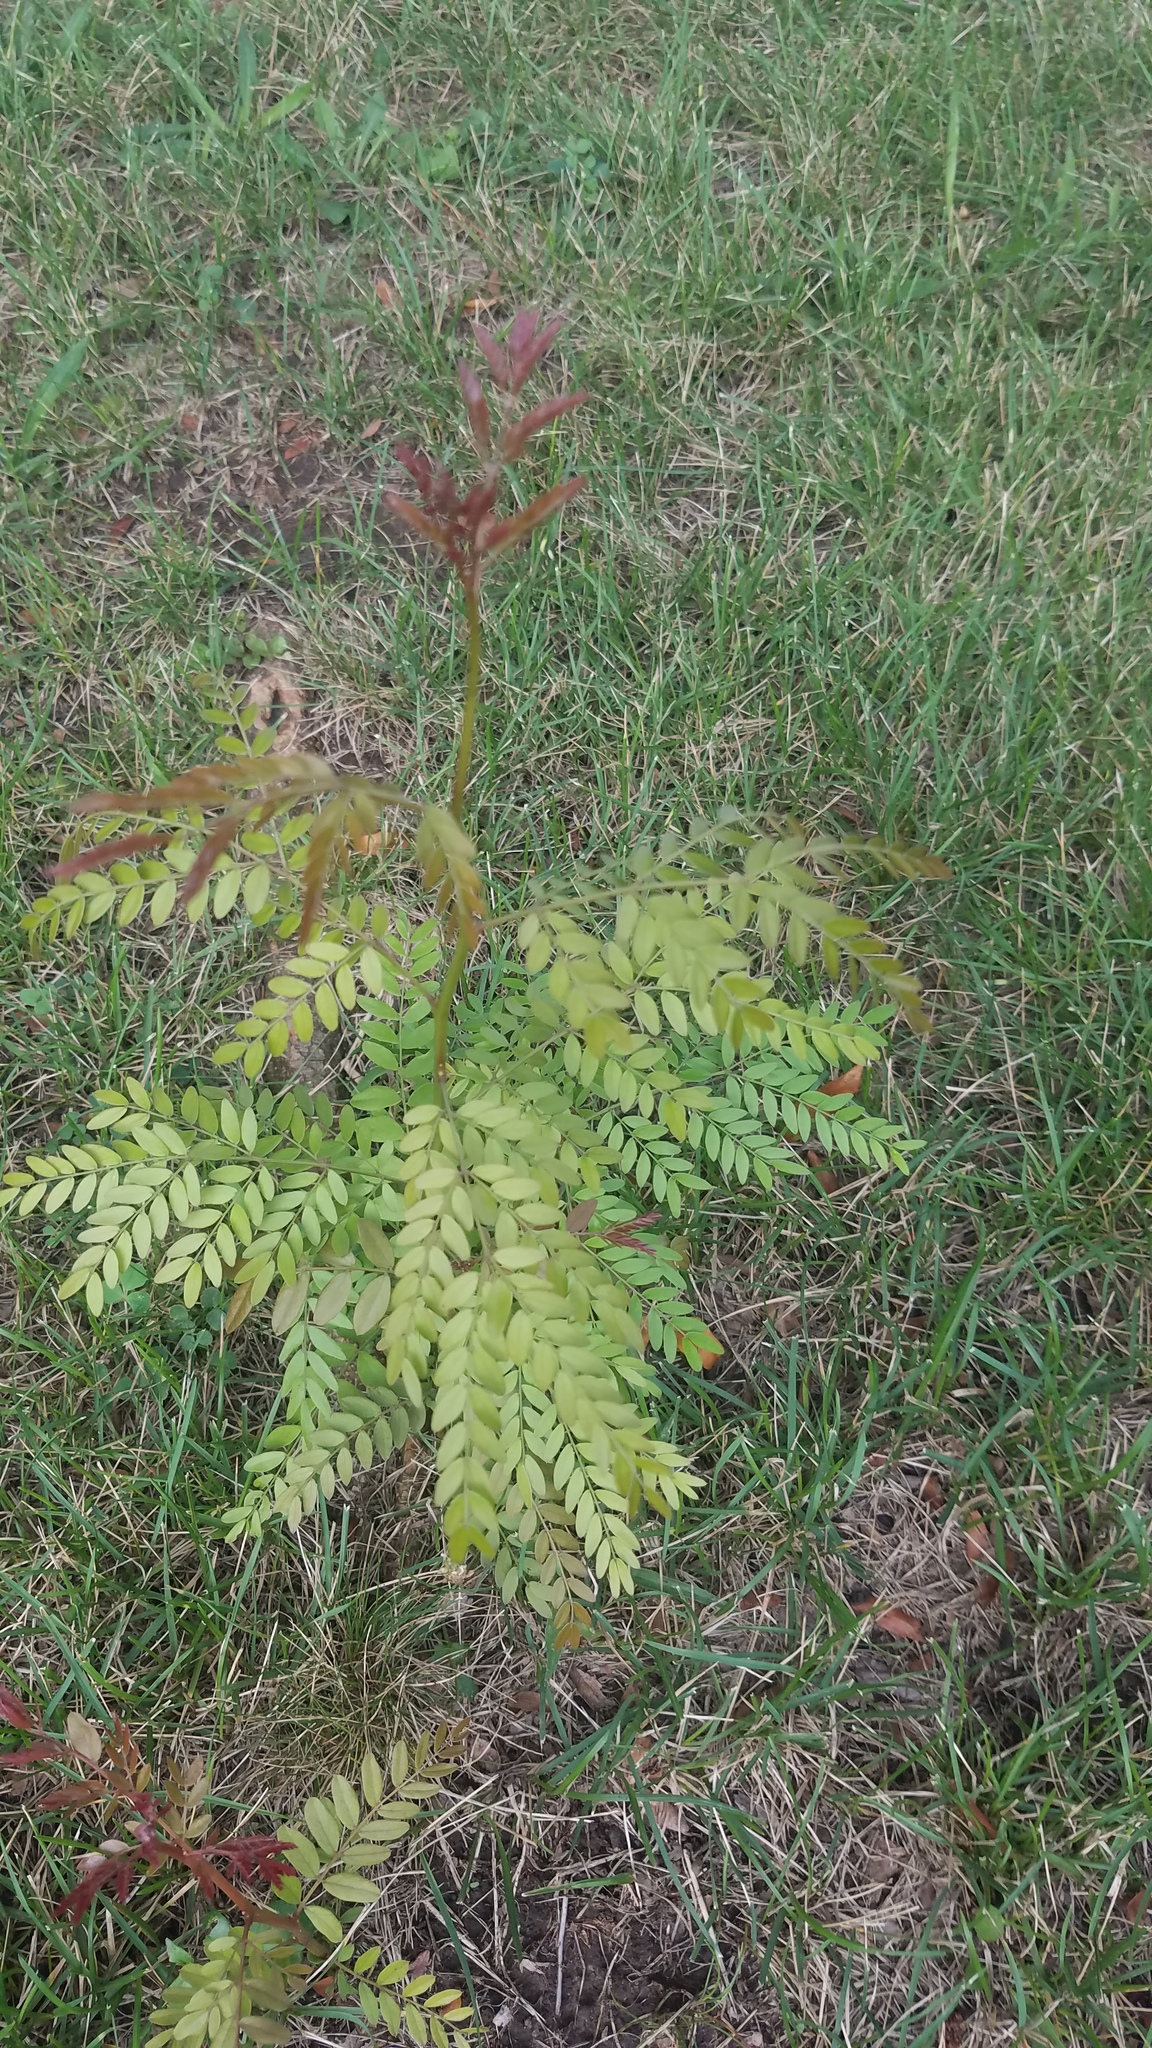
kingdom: Plantae
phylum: Tracheophyta
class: Magnoliopsida
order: Fabales
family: Fabaceae
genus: Gleditsia
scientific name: Gleditsia triacanthos
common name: Common honeylocust
